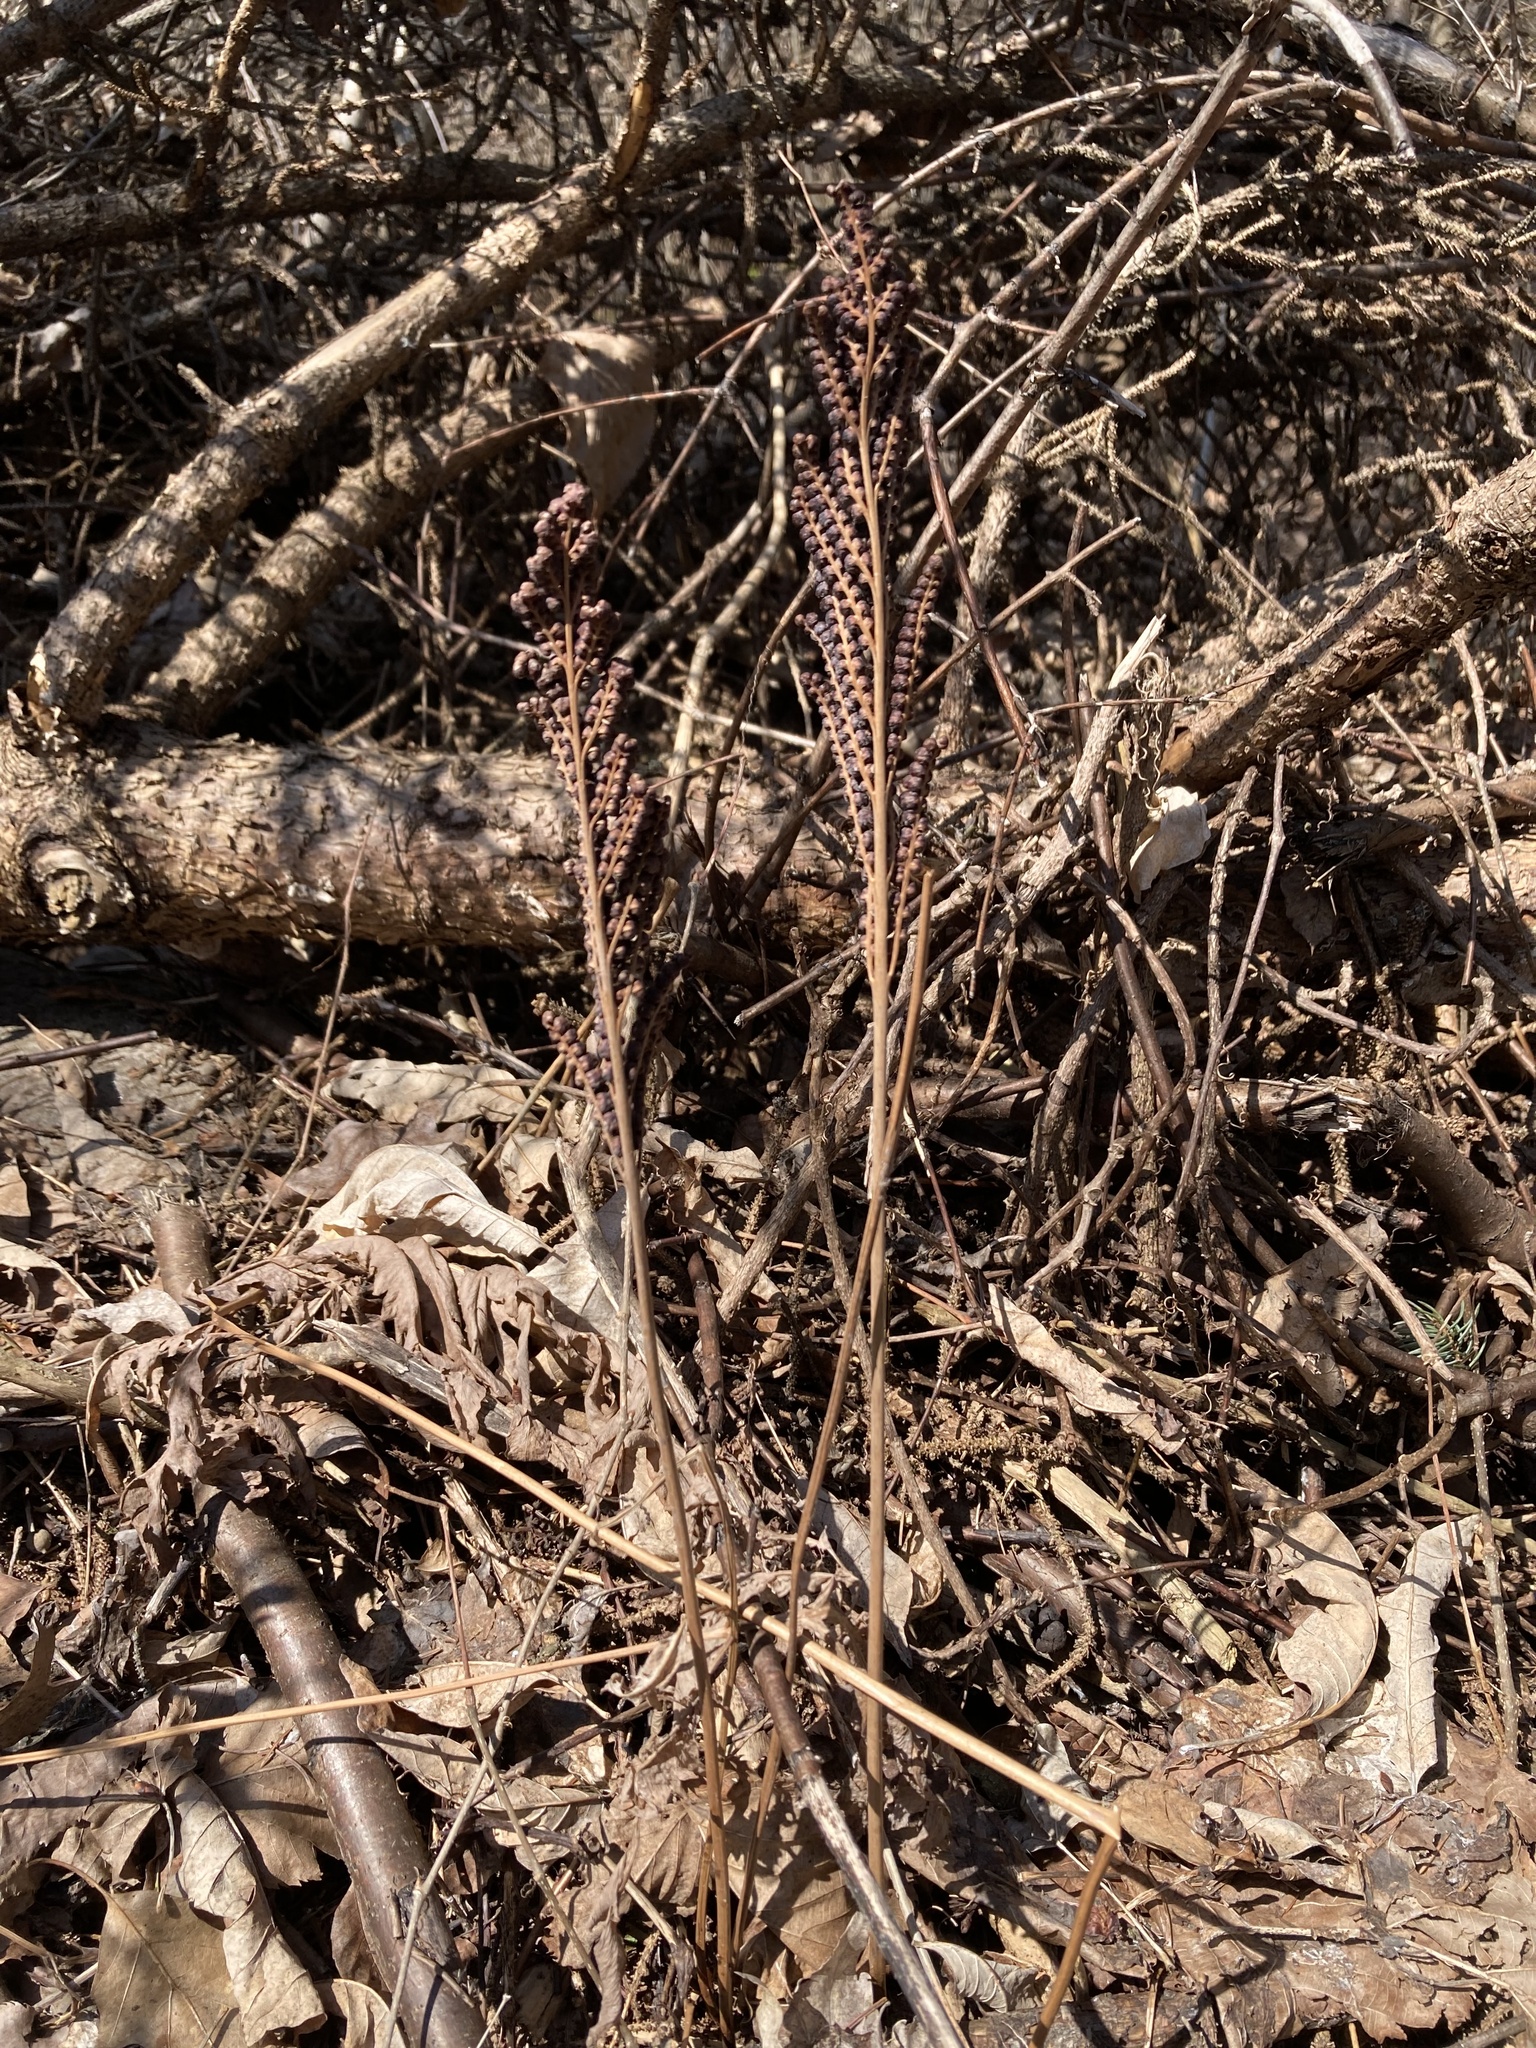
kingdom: Plantae
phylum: Tracheophyta
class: Polypodiopsida
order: Polypodiales
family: Onocleaceae
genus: Onoclea
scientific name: Onoclea sensibilis
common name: Sensitive fern
